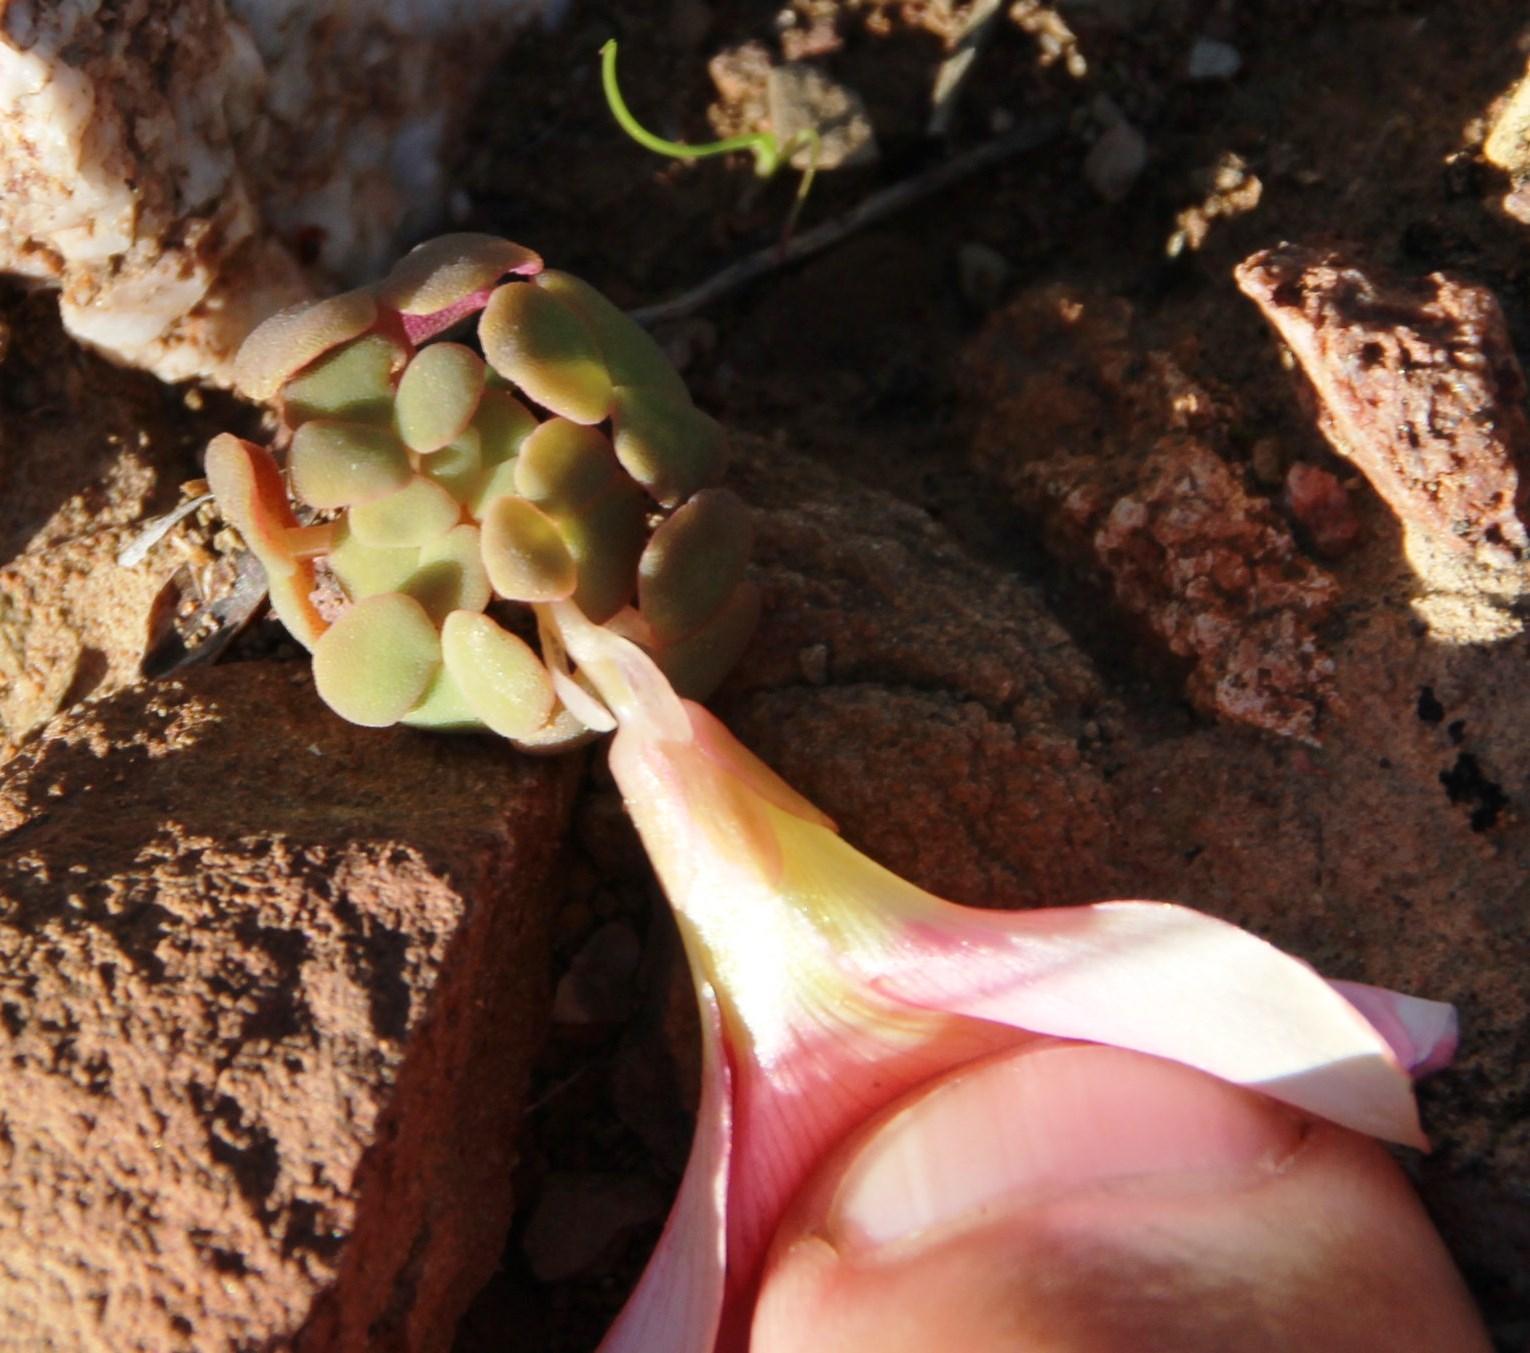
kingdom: Plantae
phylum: Tracheophyta
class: Magnoliopsida
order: Oxalidales
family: Oxalidaceae
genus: Oxalis
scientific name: Oxalis convexula
